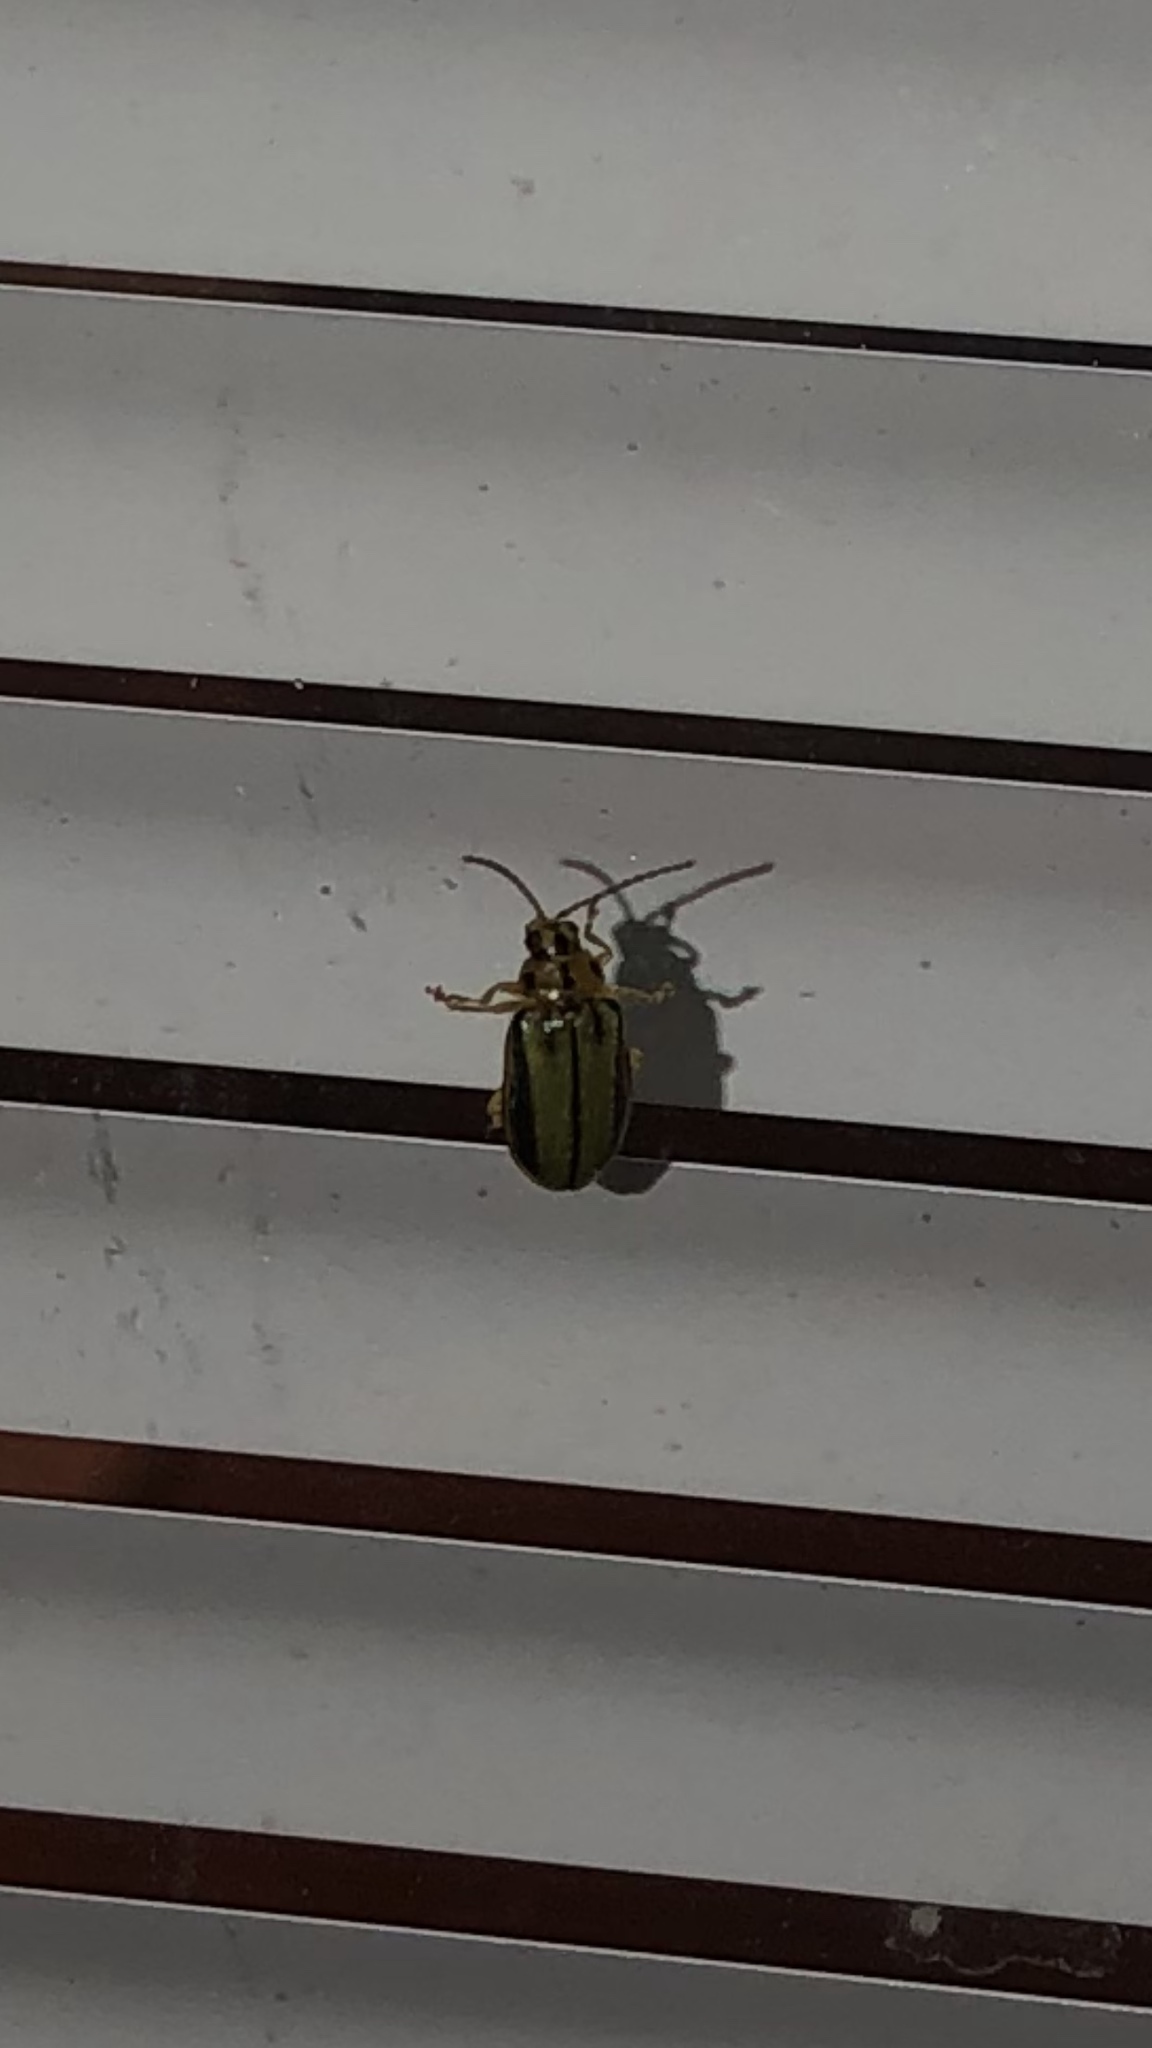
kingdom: Animalia
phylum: Arthropoda
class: Insecta
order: Coleoptera
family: Chrysomelidae
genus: Xanthogaleruca
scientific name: Xanthogaleruca luteola
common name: Elm leaf beetle
